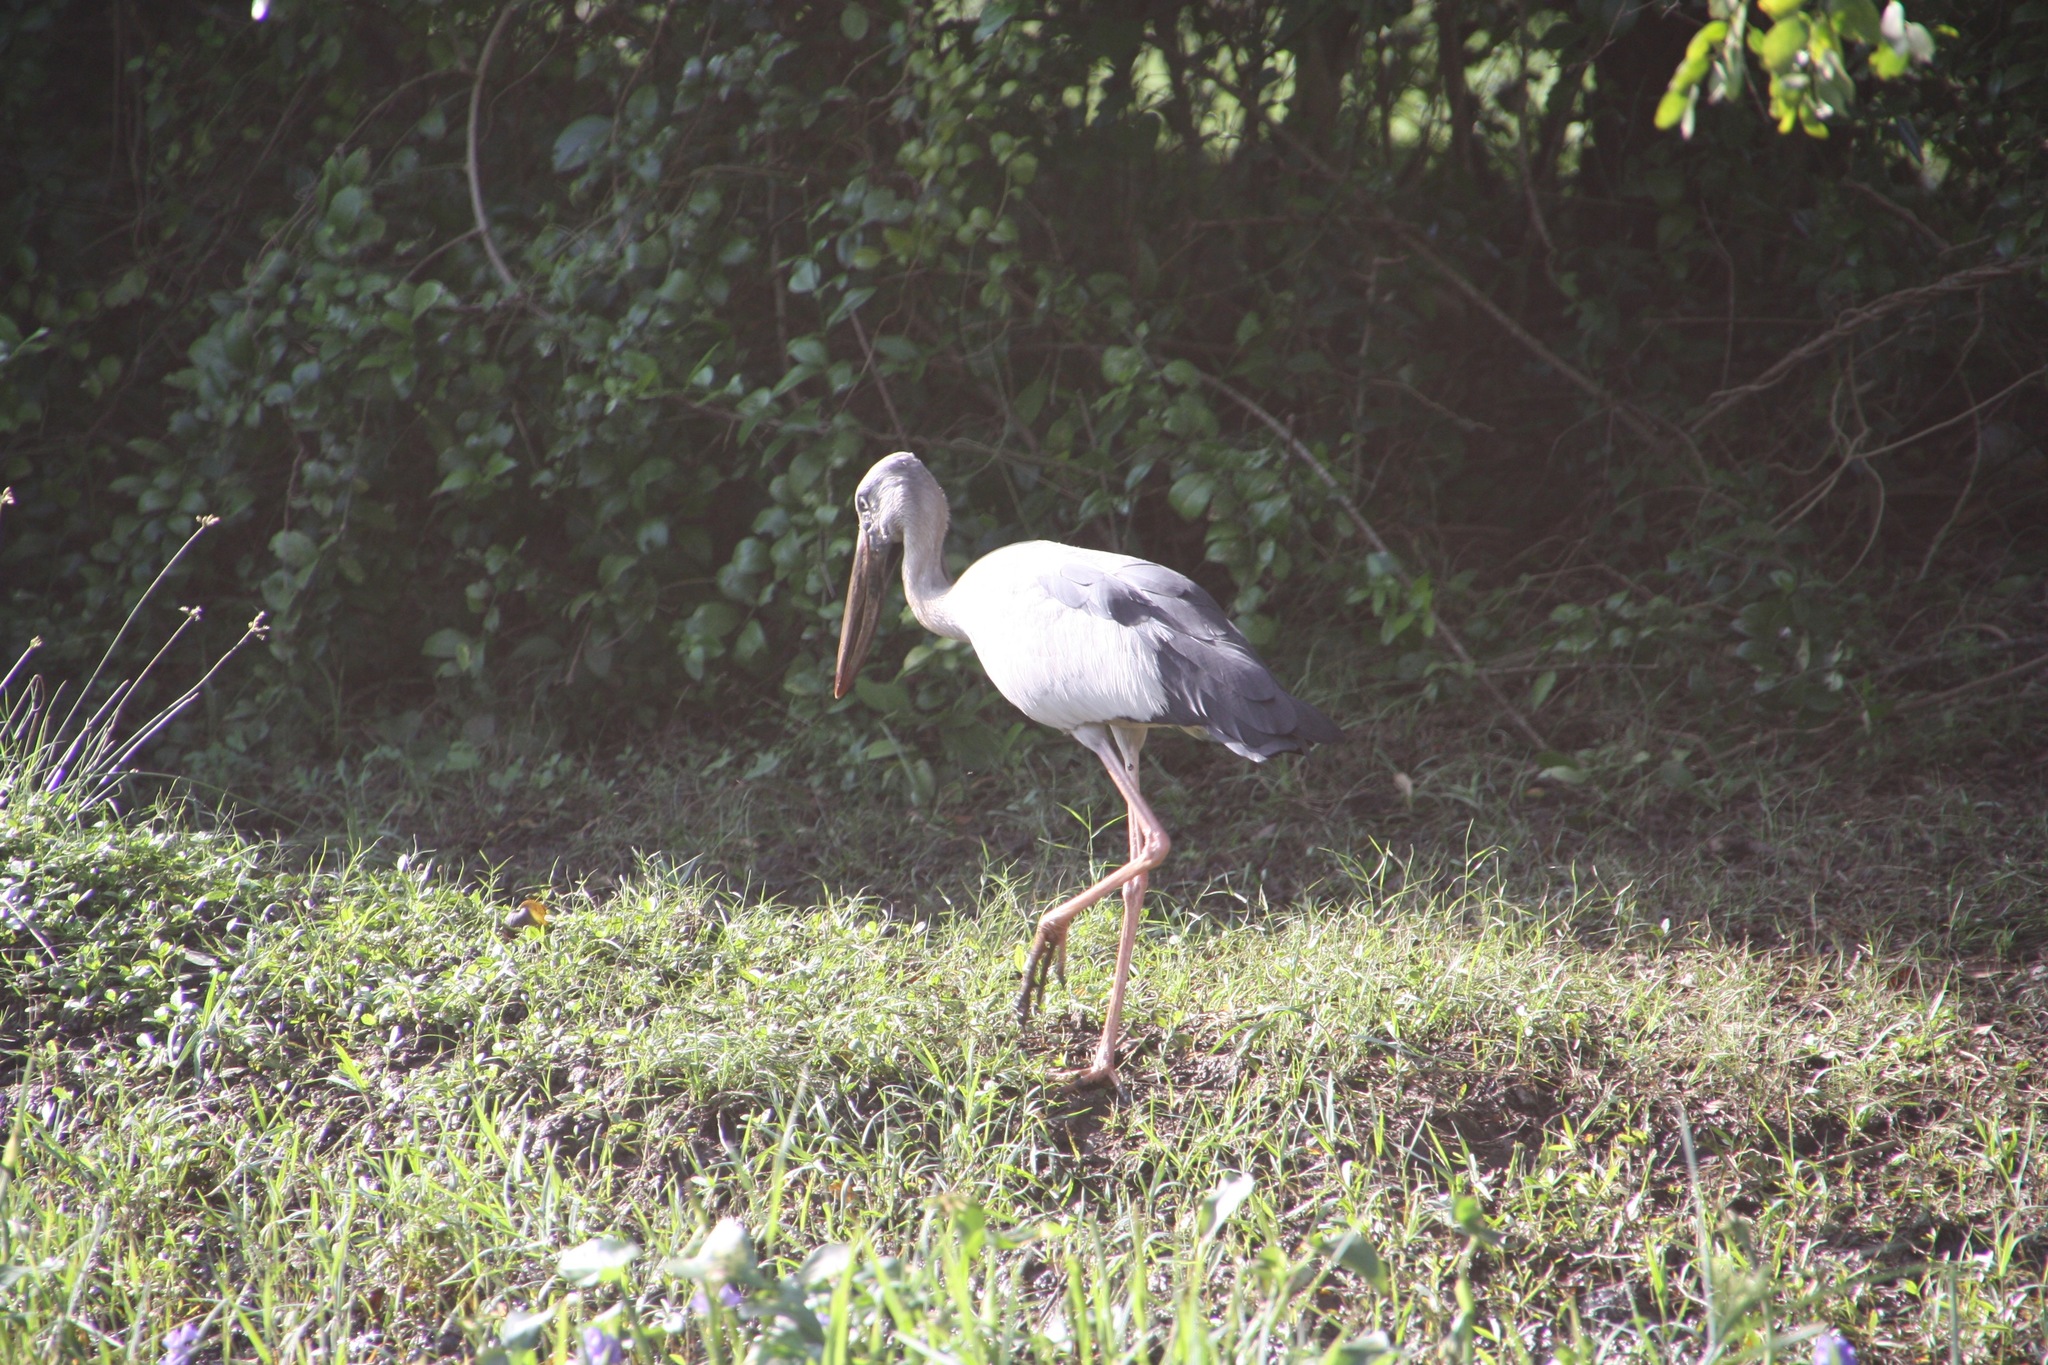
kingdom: Animalia
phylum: Chordata
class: Aves
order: Ciconiiformes
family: Ciconiidae
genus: Anastomus
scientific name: Anastomus oscitans
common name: Asian openbill
